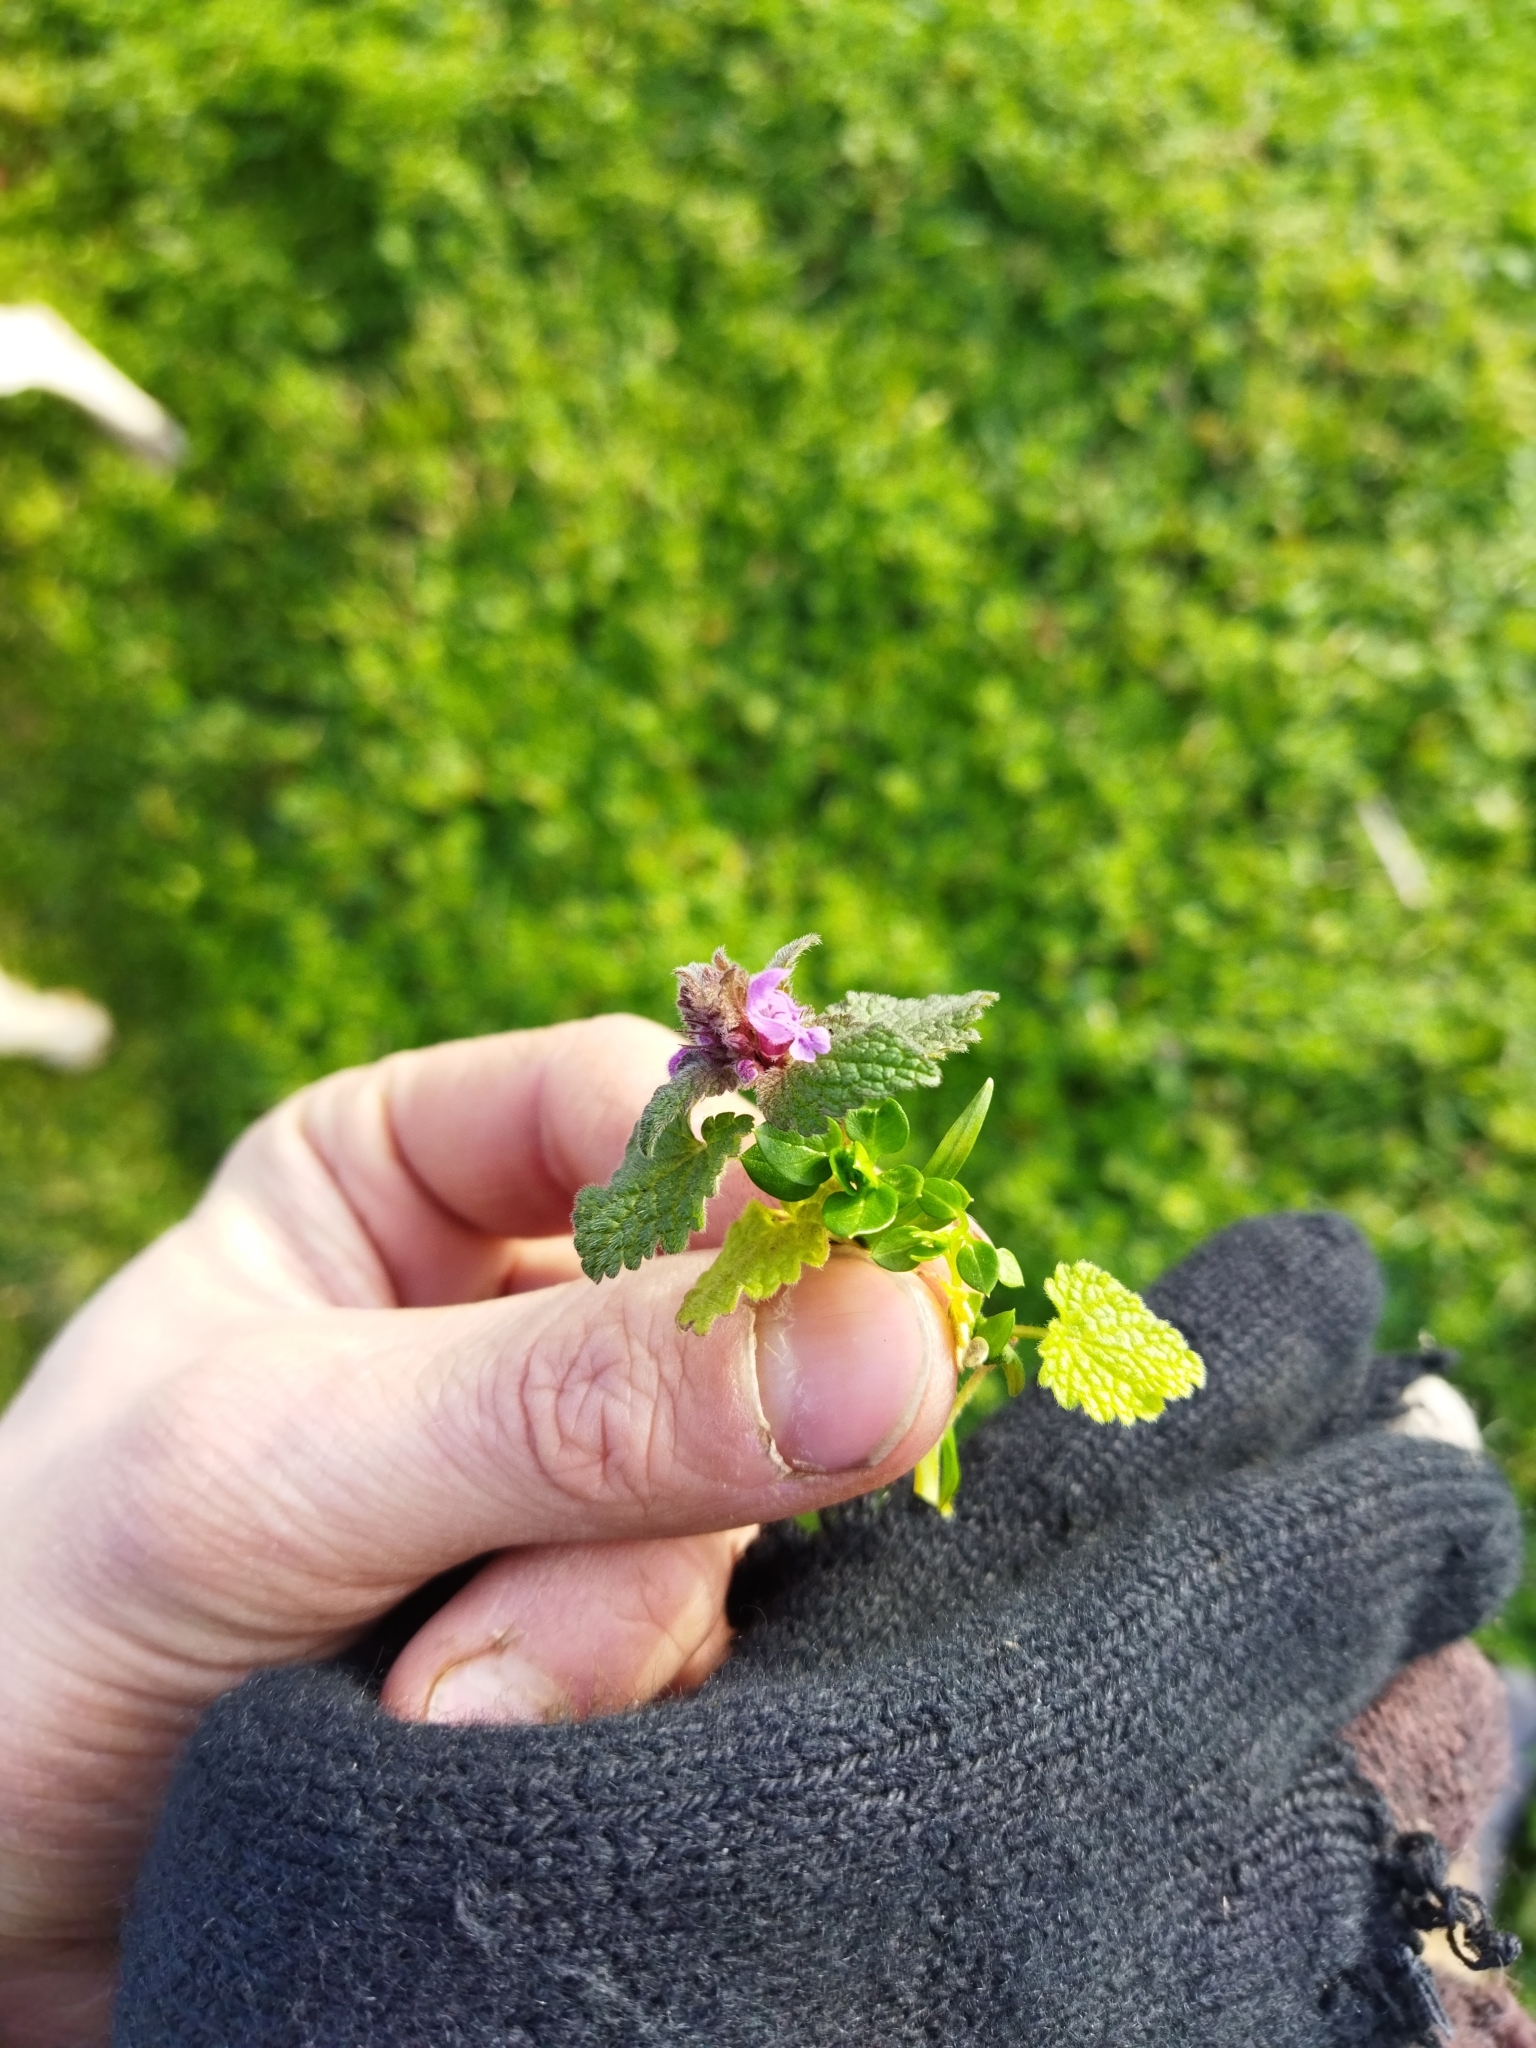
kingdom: Plantae
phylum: Tracheophyta
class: Magnoliopsida
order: Lamiales
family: Lamiaceae
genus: Lamium
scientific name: Lamium purpureum
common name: Red dead-nettle
